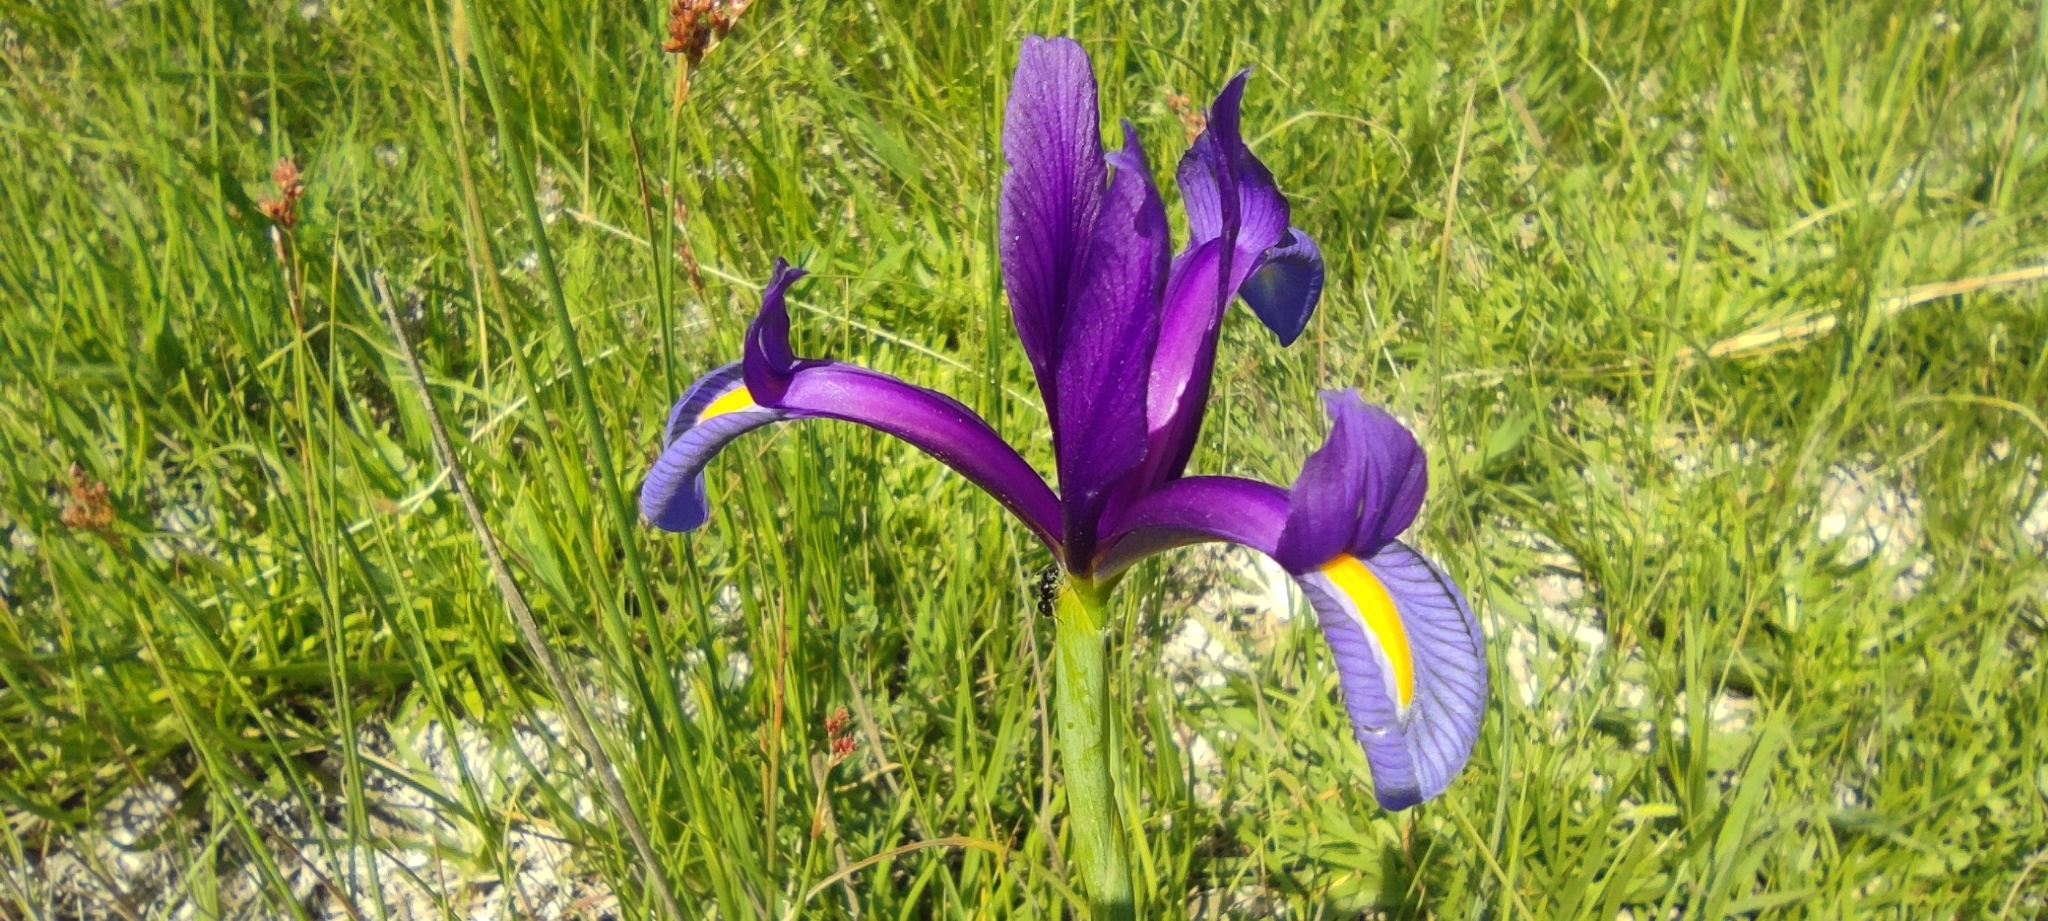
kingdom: Plantae
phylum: Tracheophyta
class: Liliopsida
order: Asparagales
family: Iridaceae
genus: Iris
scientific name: Iris xiphium
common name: Spanish iris
